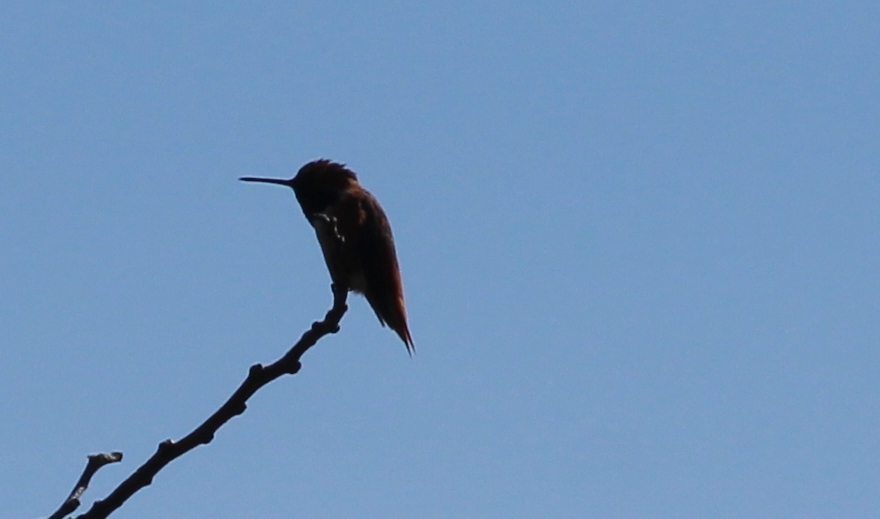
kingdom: Animalia
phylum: Chordata
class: Aves
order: Apodiformes
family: Trochilidae
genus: Selasphorus
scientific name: Selasphorus
